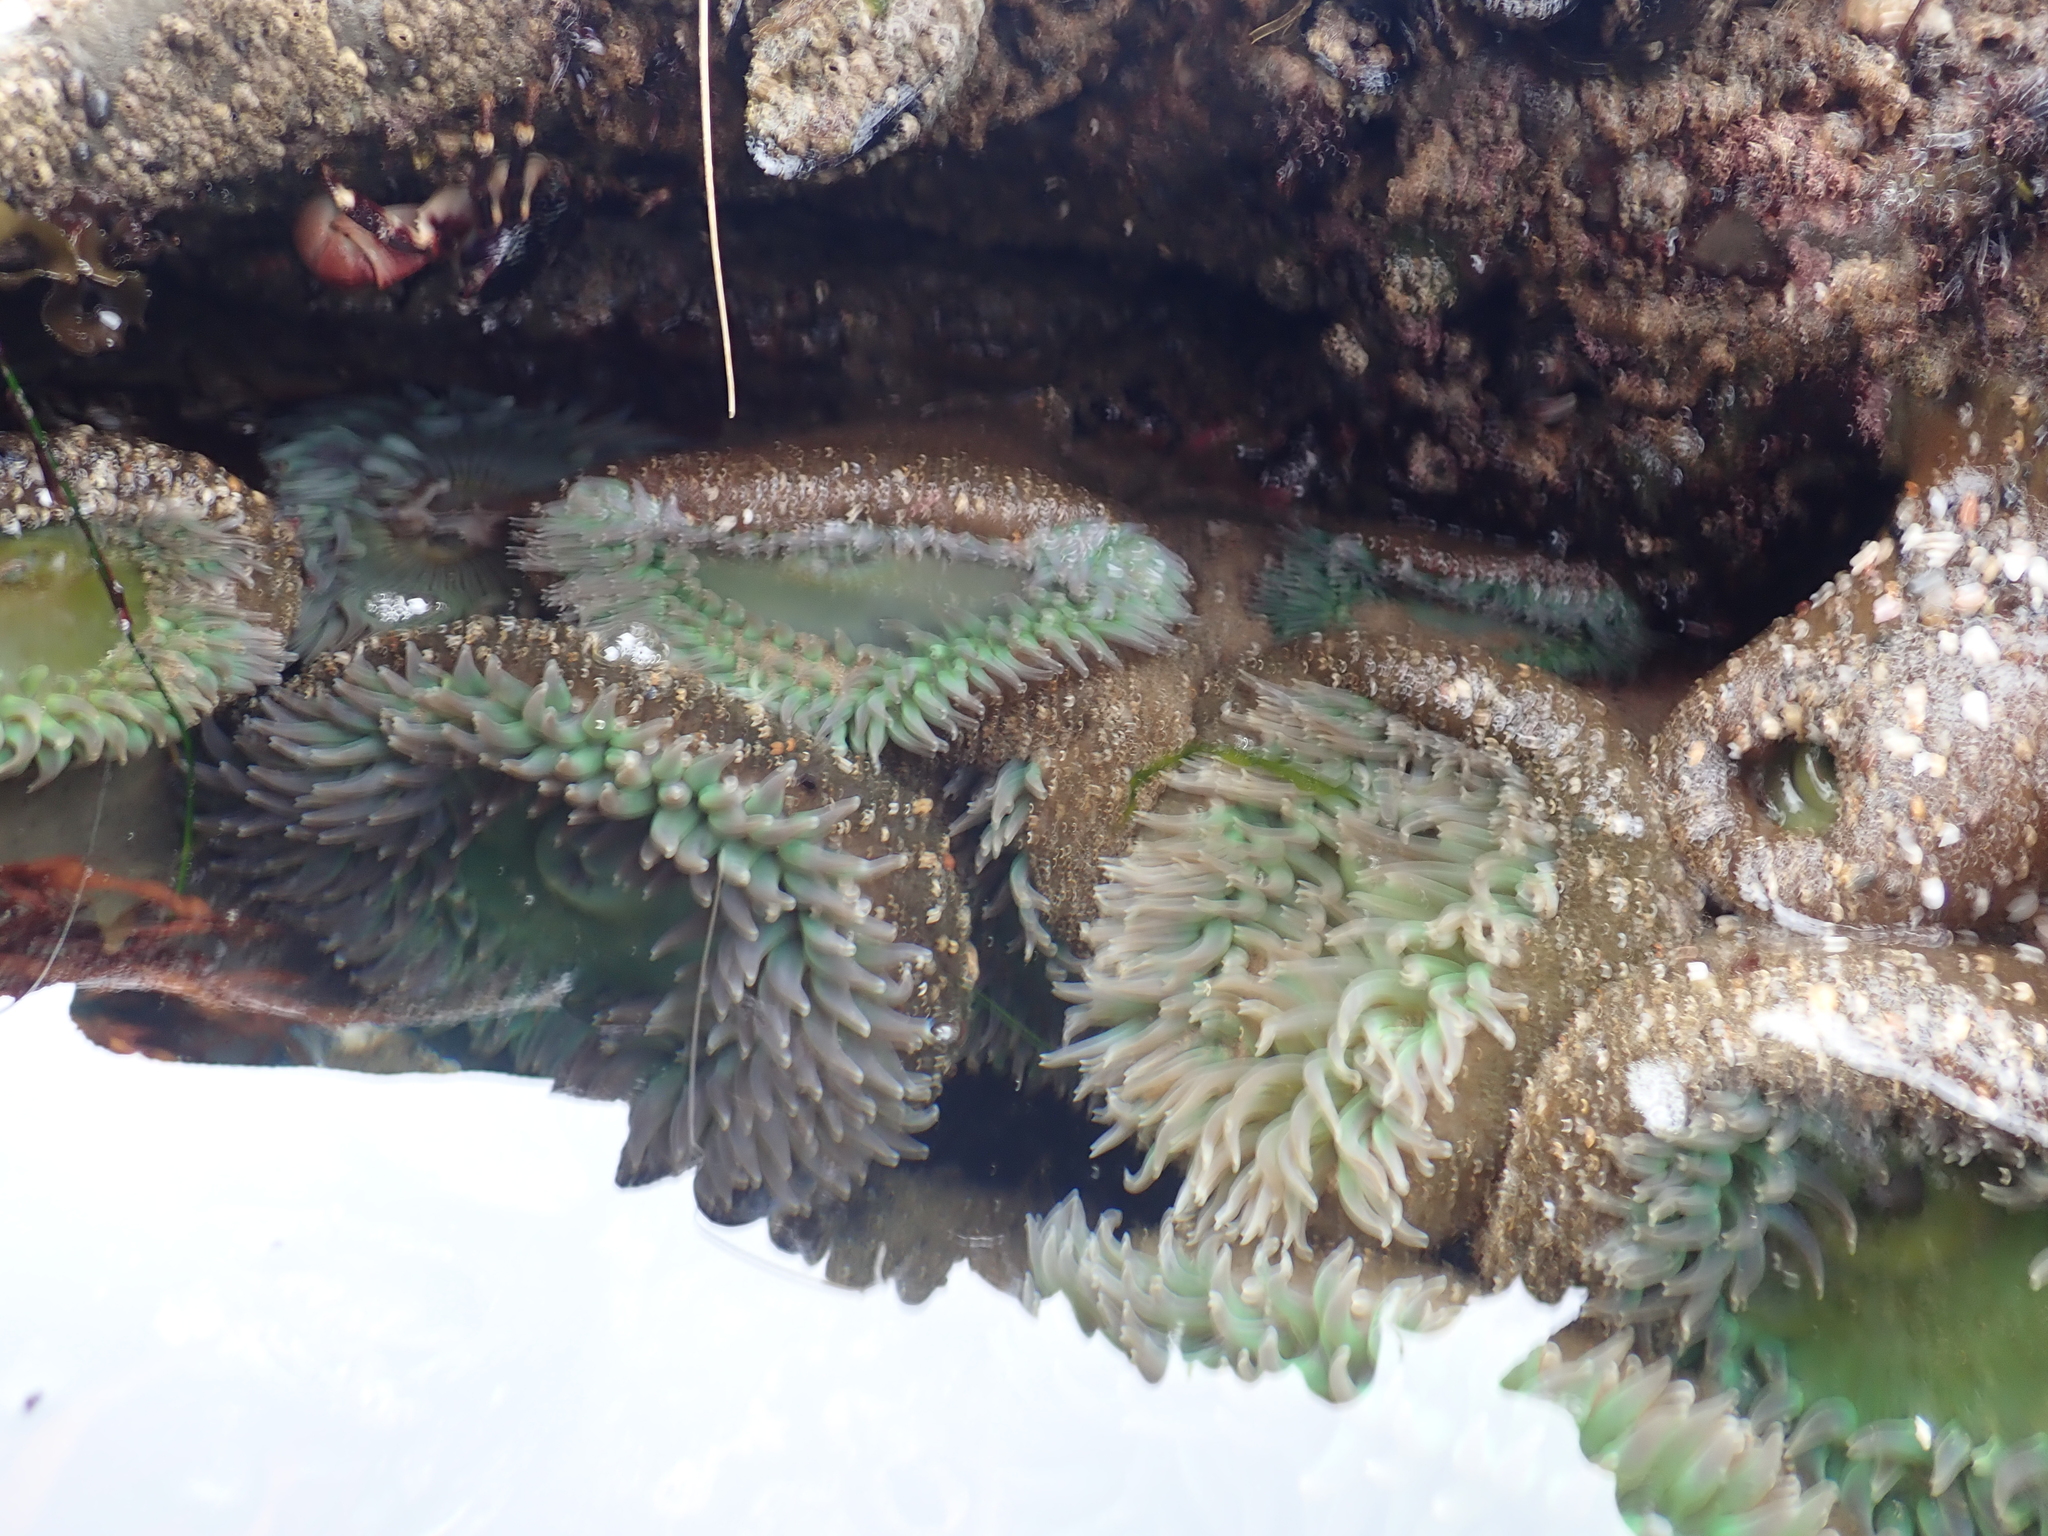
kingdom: Animalia
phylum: Cnidaria
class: Anthozoa
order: Actiniaria
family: Actiniidae
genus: Anthopleura
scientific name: Anthopleura xanthogrammica
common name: Giant green anemone
